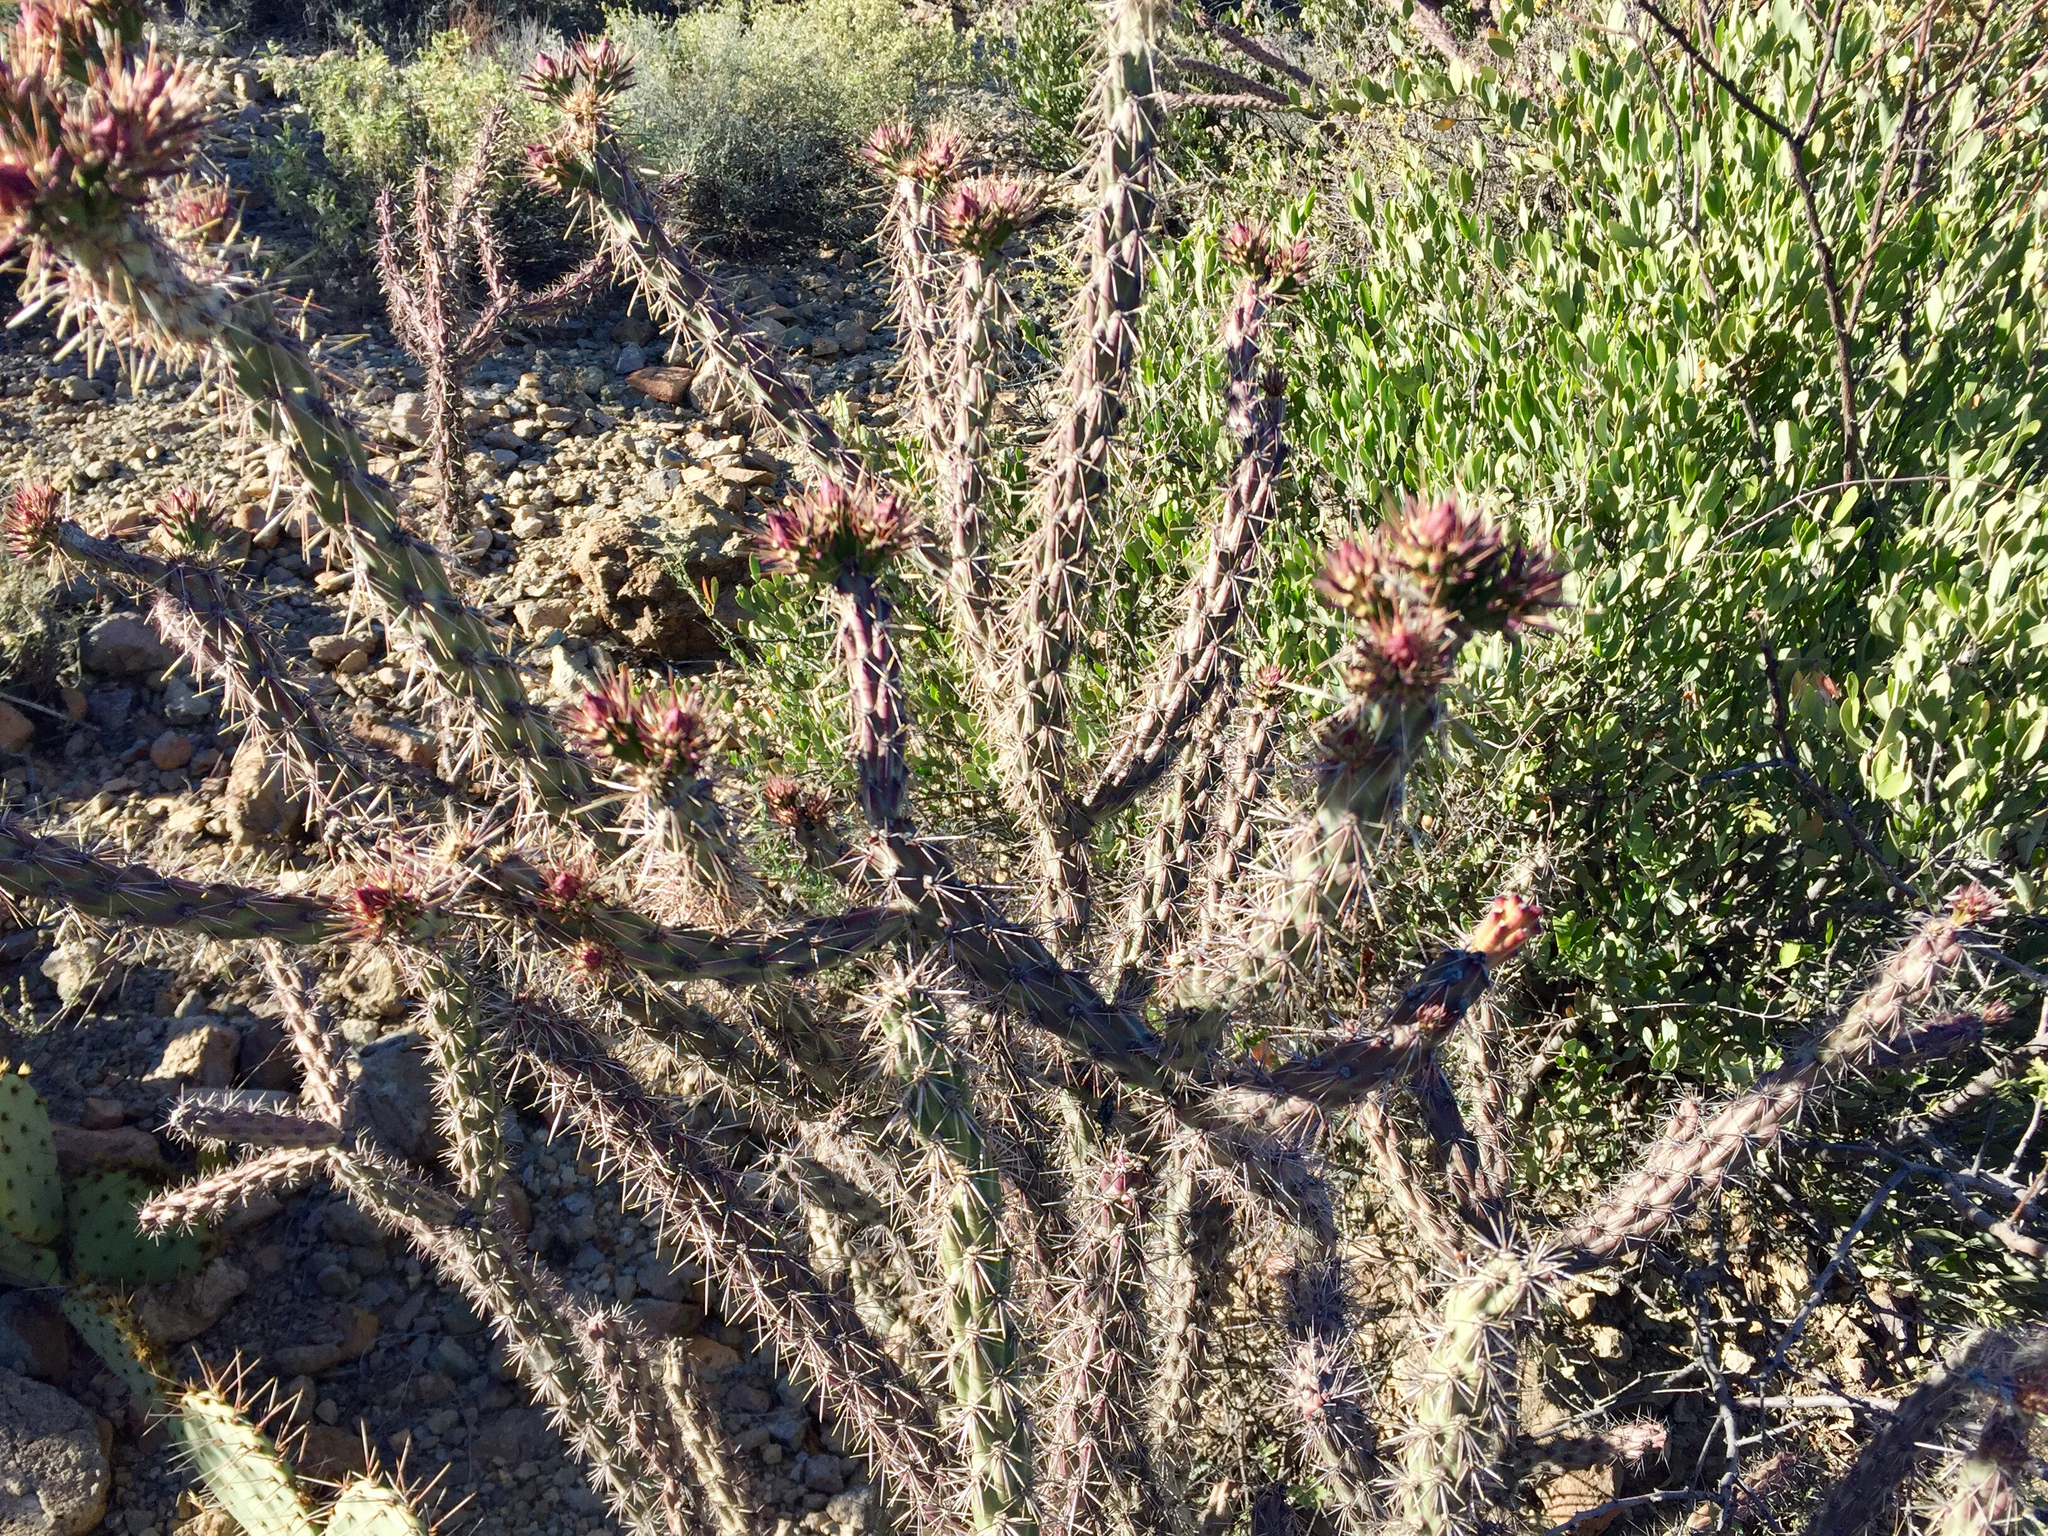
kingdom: Plantae
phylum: Tracheophyta
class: Magnoliopsida
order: Caryophyllales
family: Cactaceae
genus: Cylindropuntia
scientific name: Cylindropuntia acanthocarpa
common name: Buckhorn cholla
